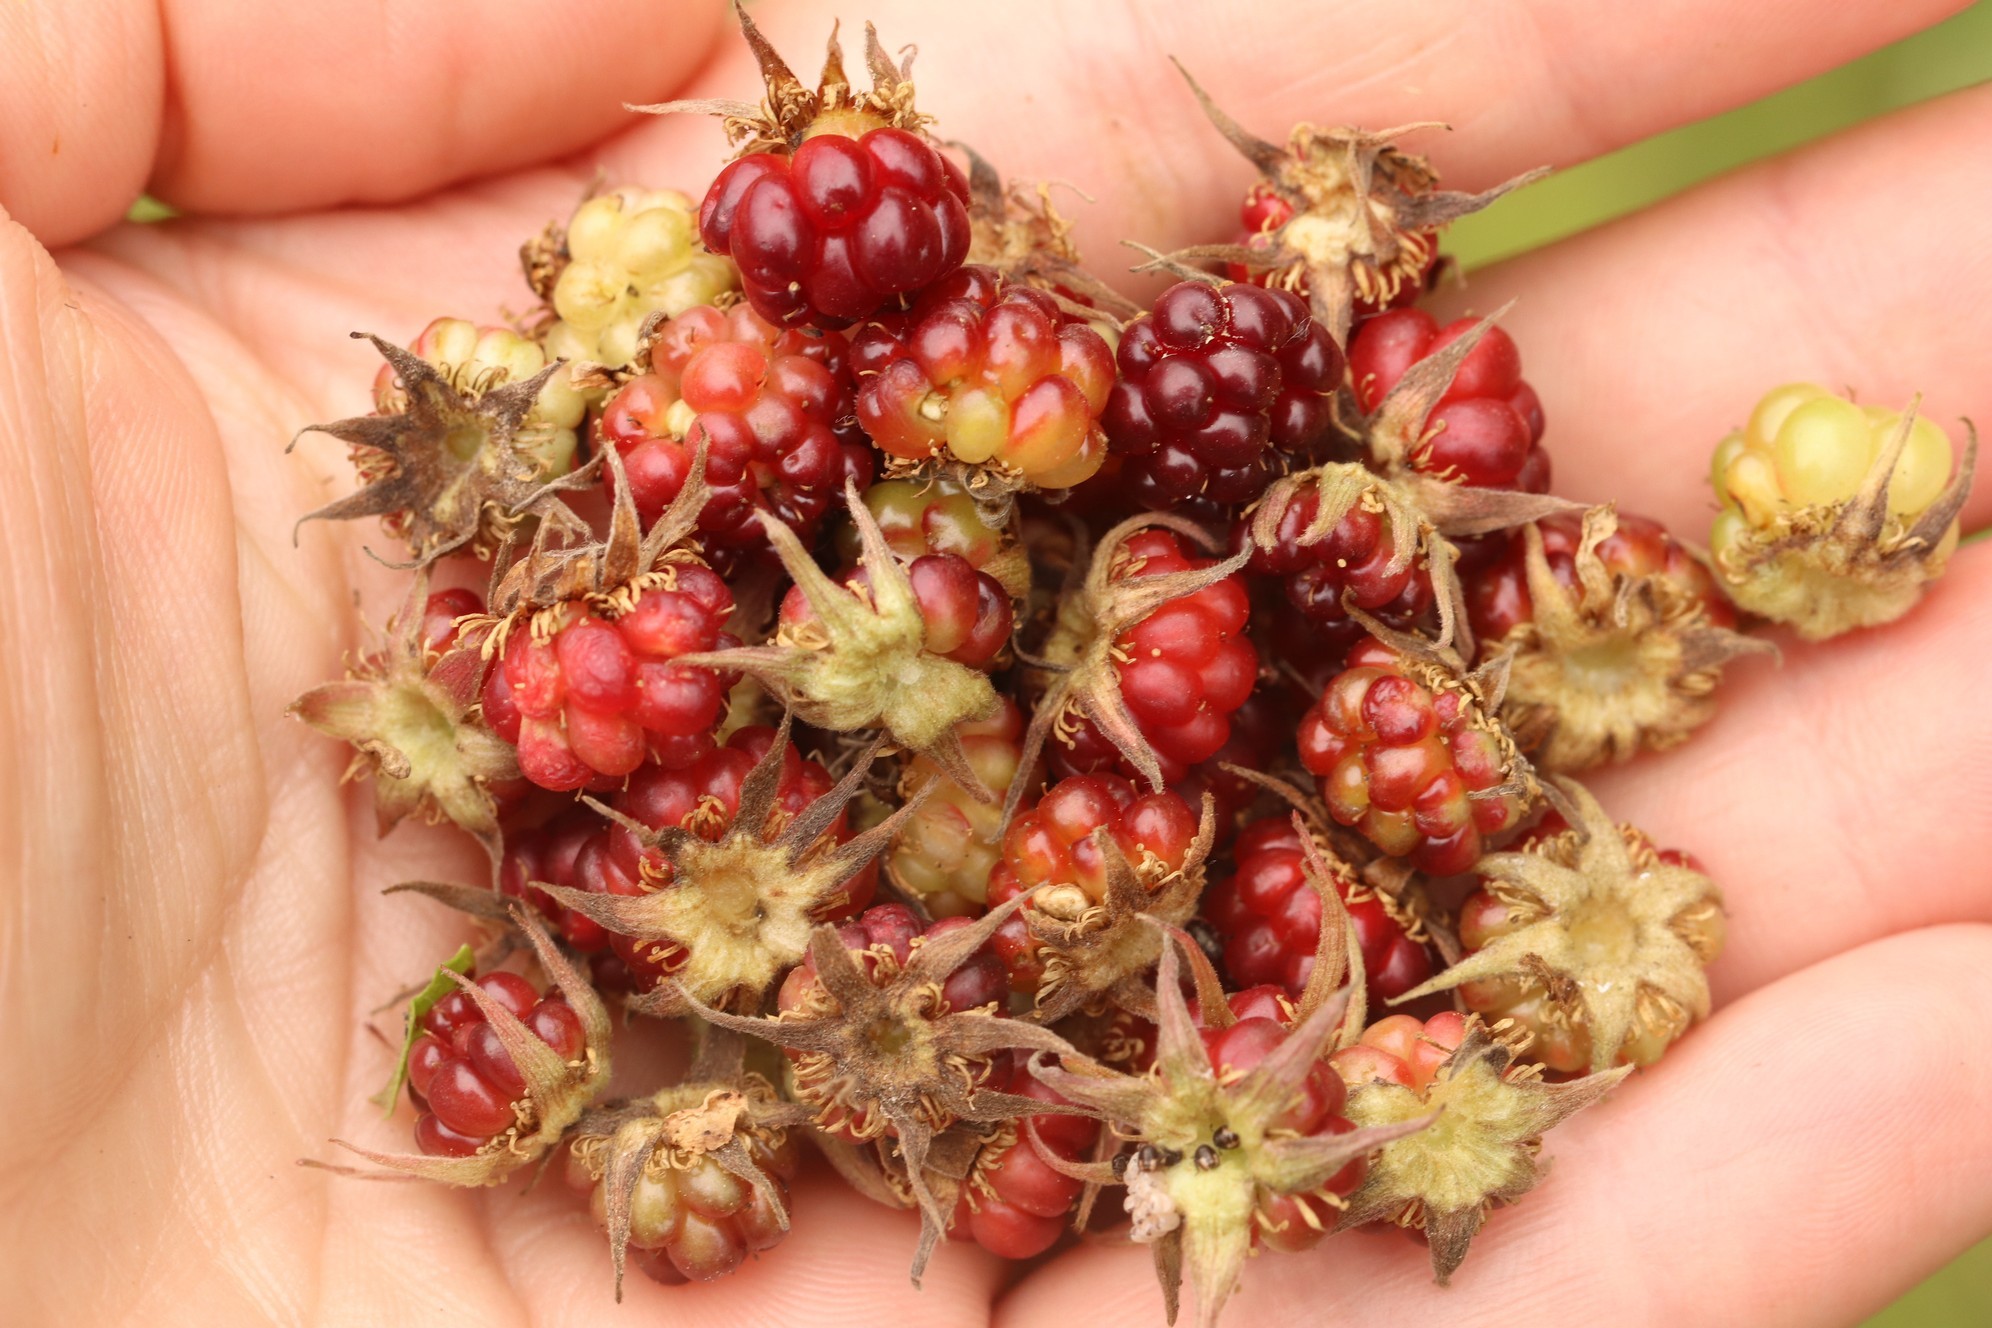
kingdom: Plantae
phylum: Tracheophyta
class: Magnoliopsida
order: Rosales
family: Rosaceae
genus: Rubus
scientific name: Rubus arcticus
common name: Arctic bramble
